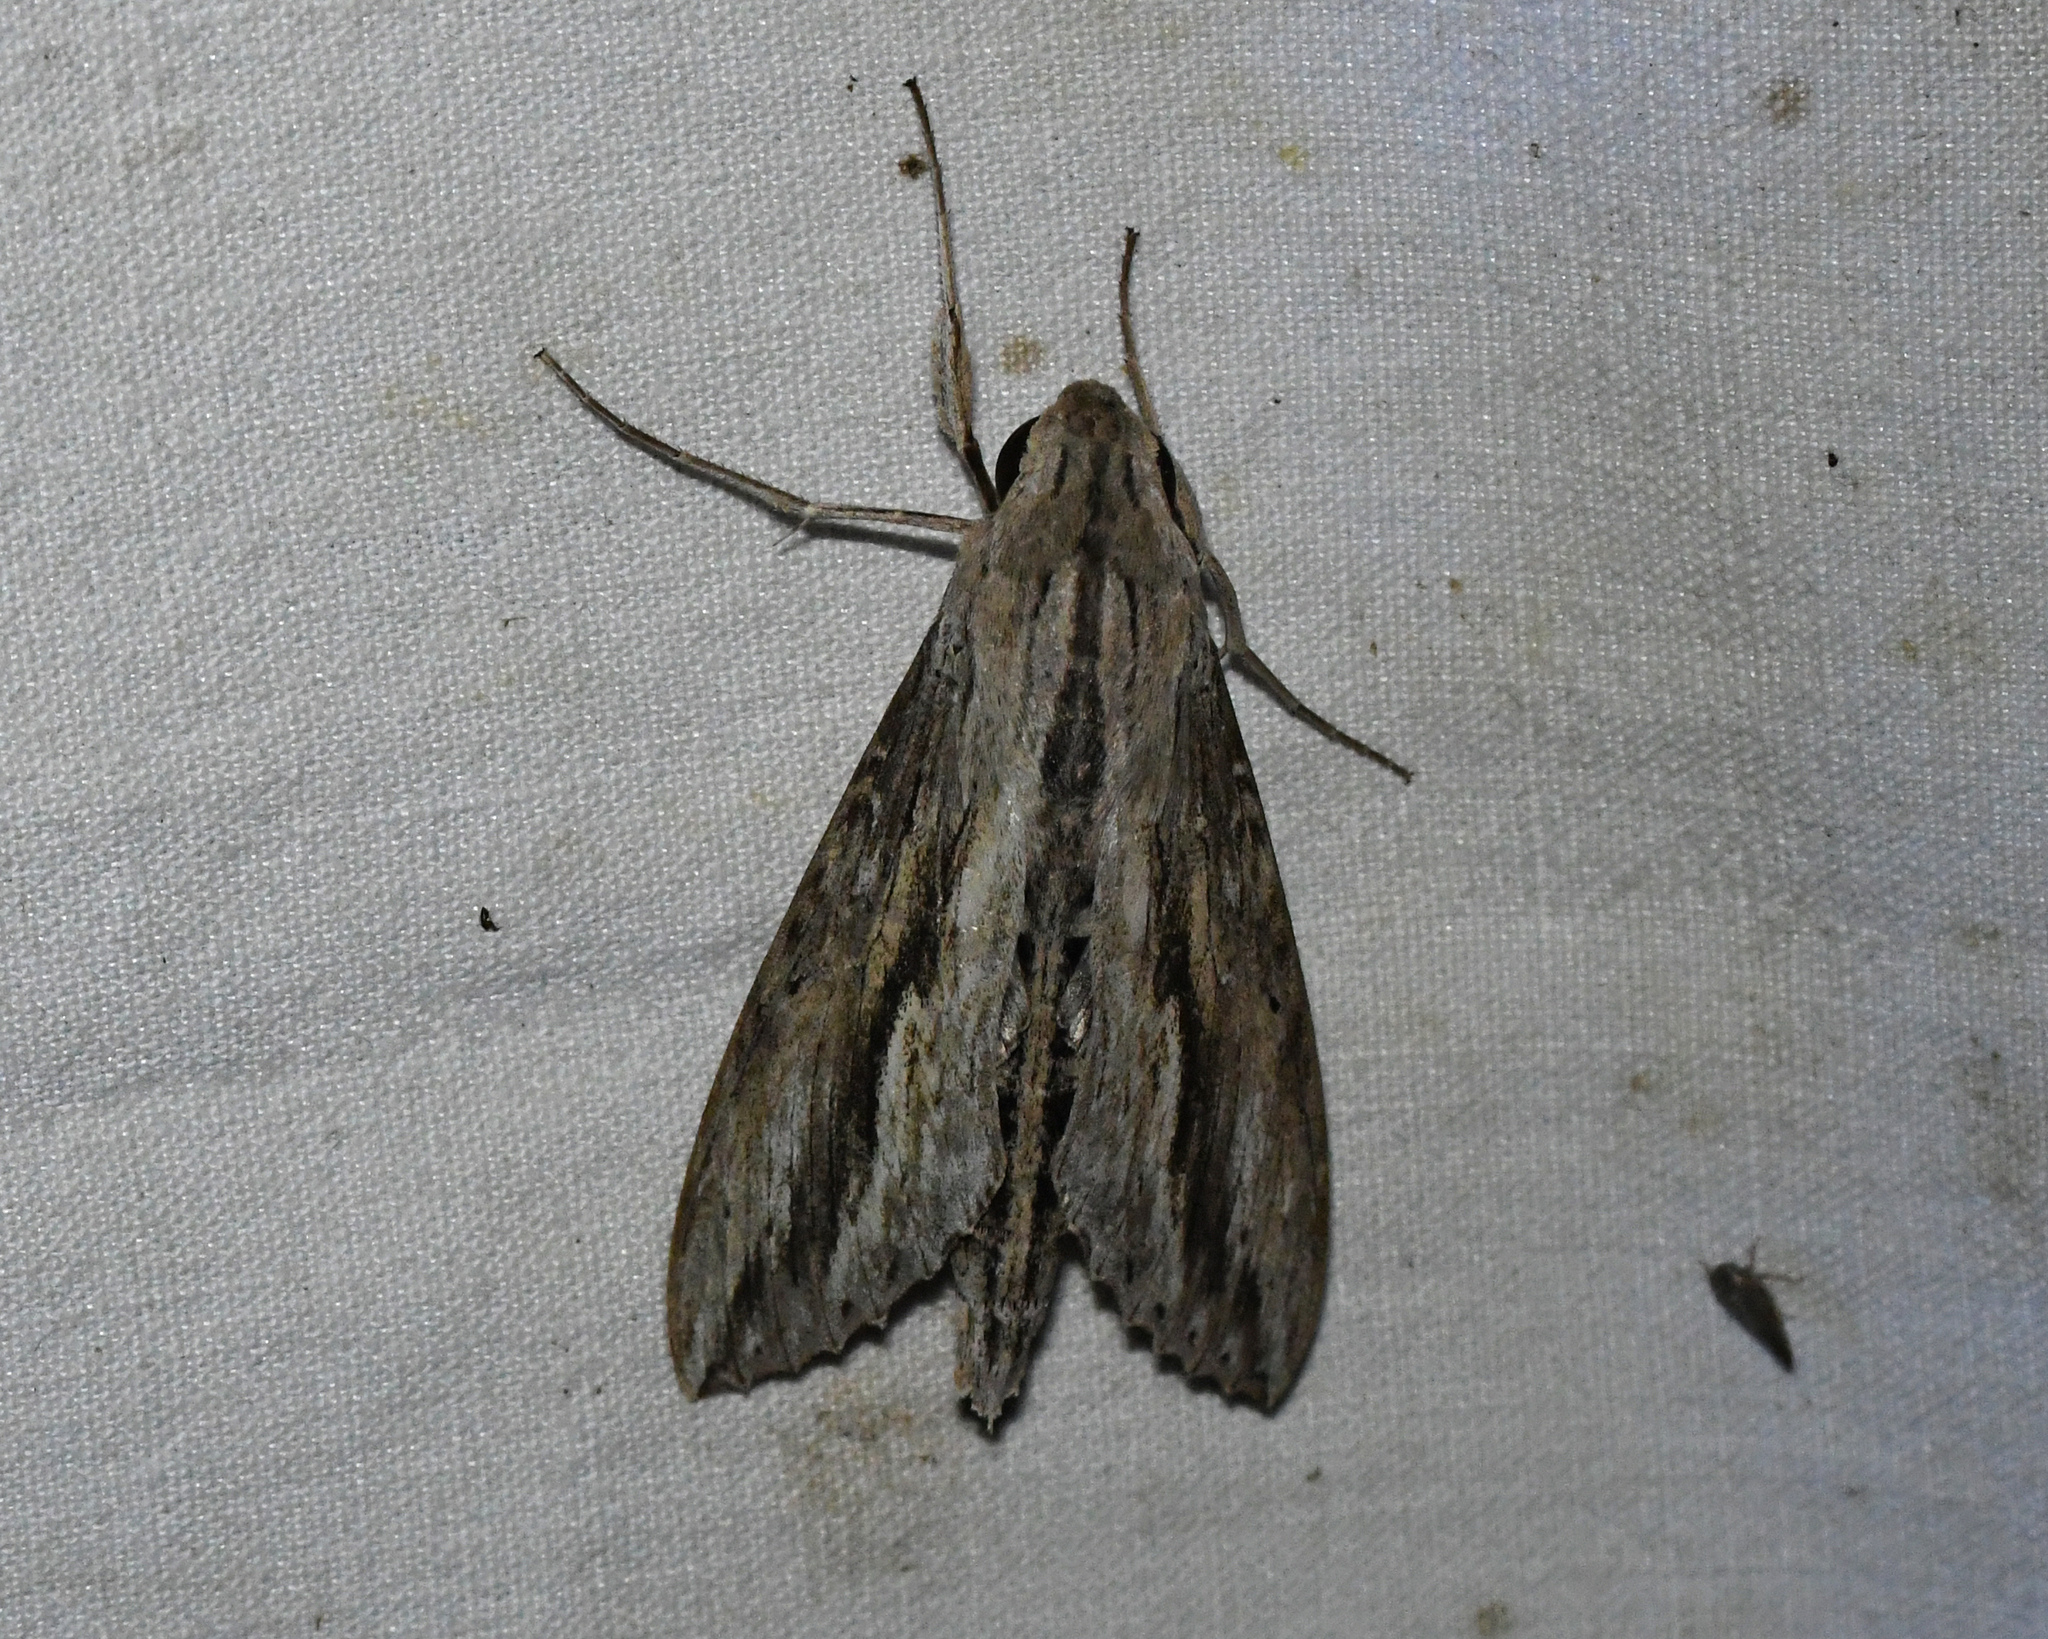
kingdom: Animalia
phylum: Arthropoda
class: Insecta
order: Lepidoptera
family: Sphingidae
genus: Erinnyis
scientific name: Erinnyis ello
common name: Ello sphinx
